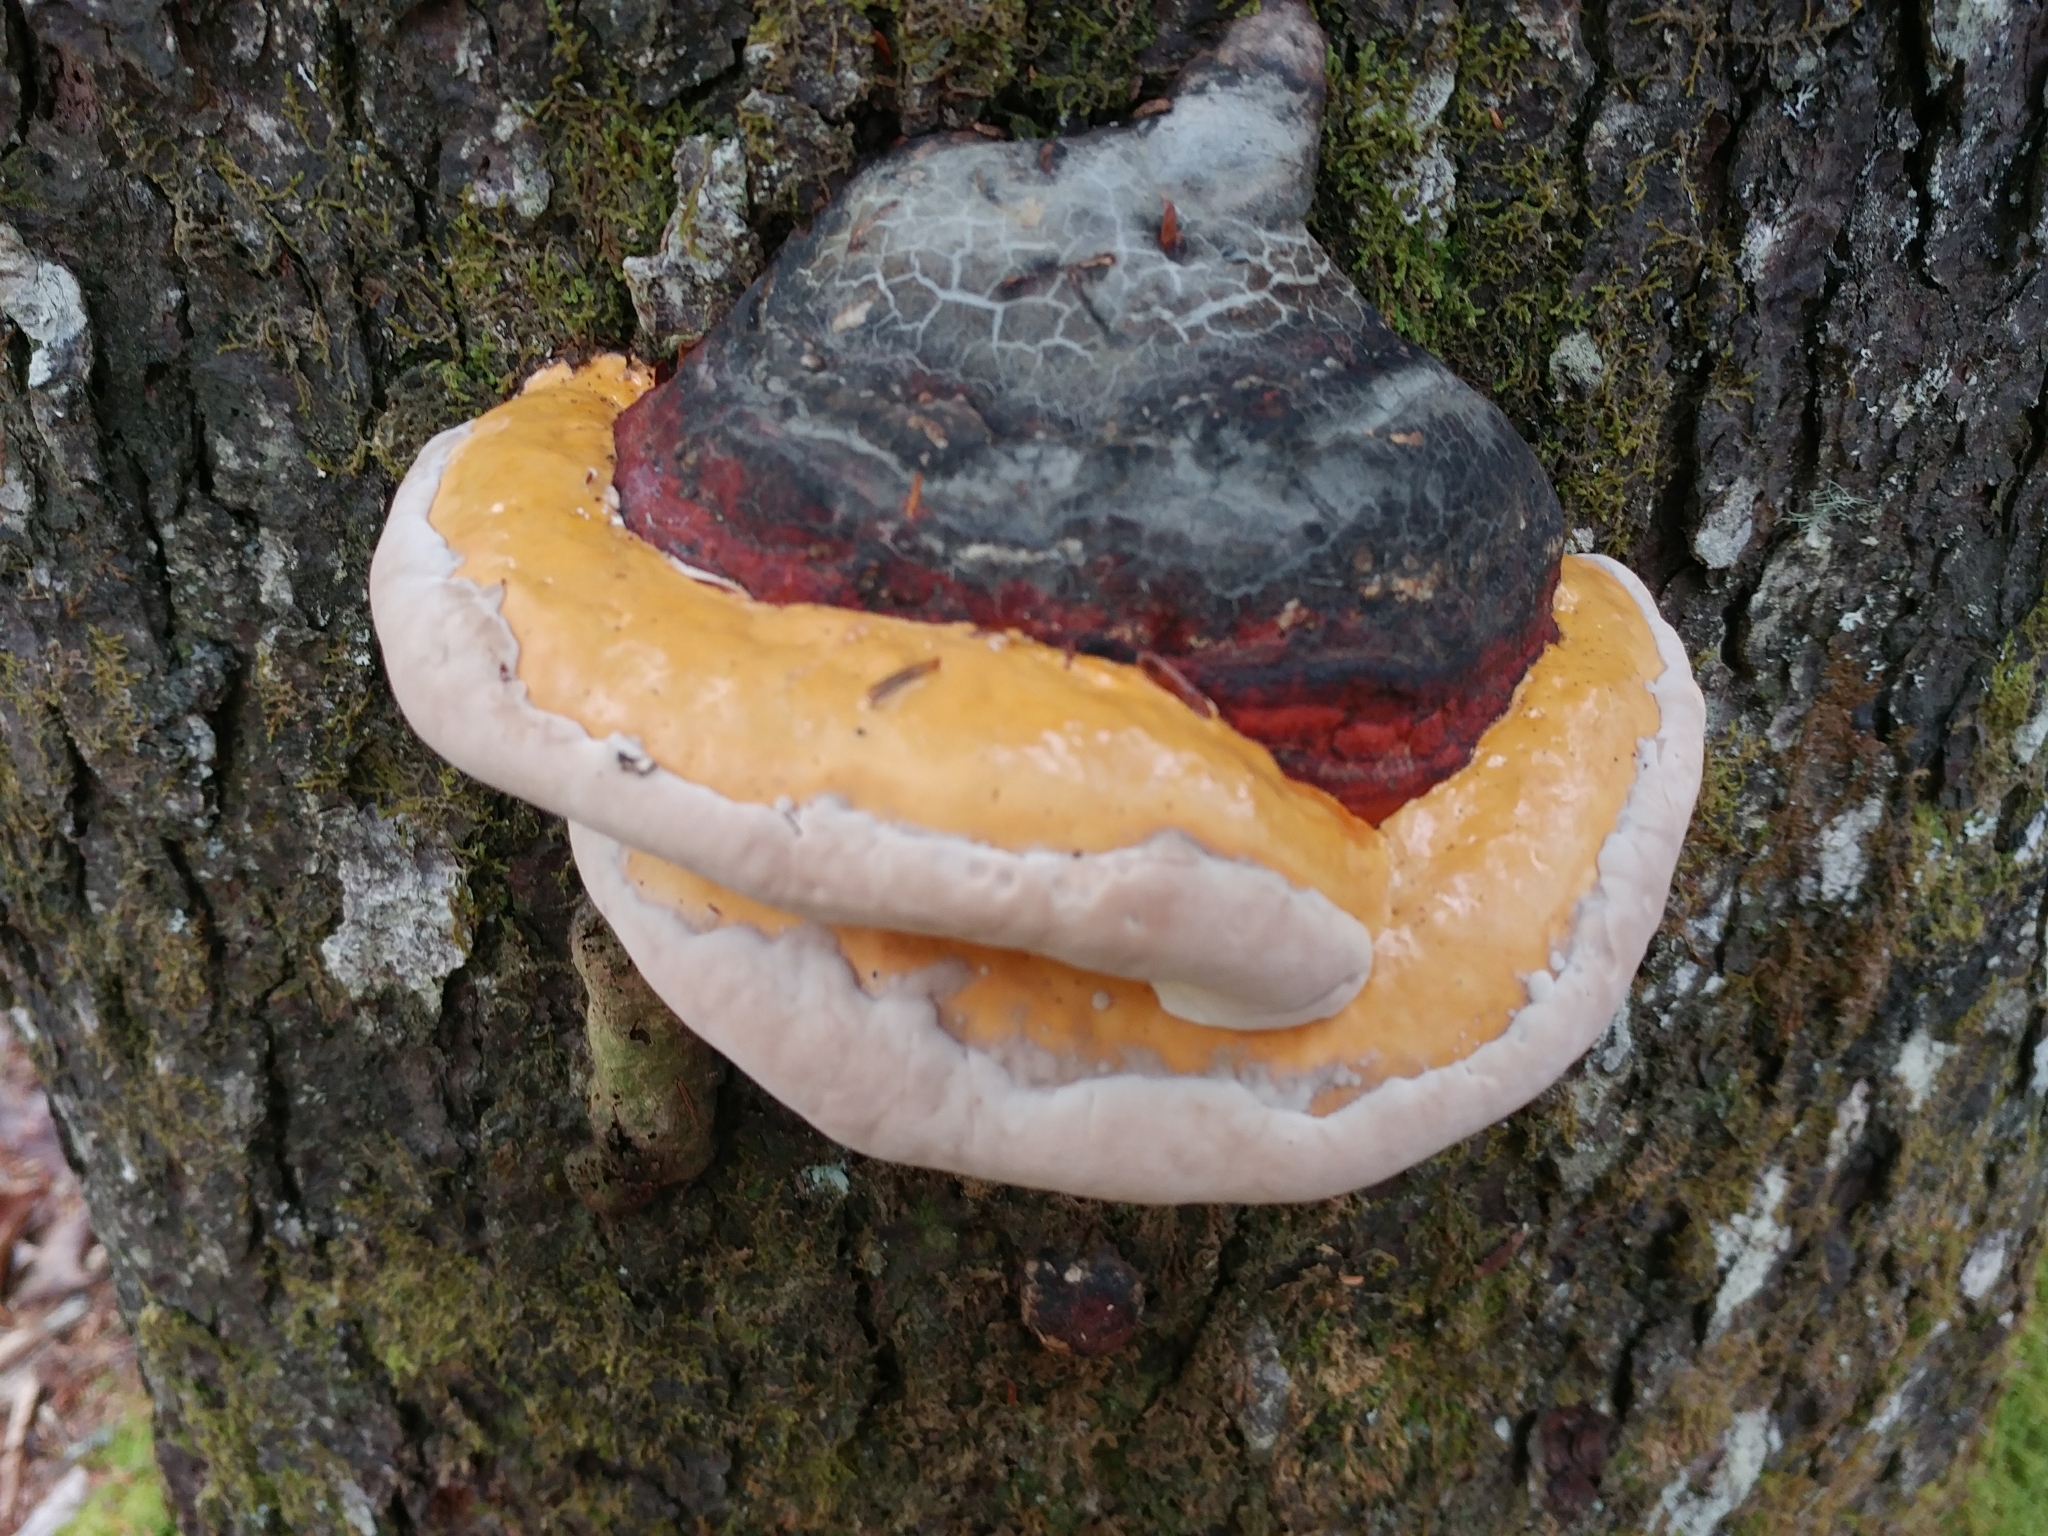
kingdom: Fungi
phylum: Basidiomycota
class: Agaricomycetes
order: Polyporales
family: Fomitopsidaceae
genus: Fomitopsis
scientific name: Fomitopsis mounceae
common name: Northern red belt
